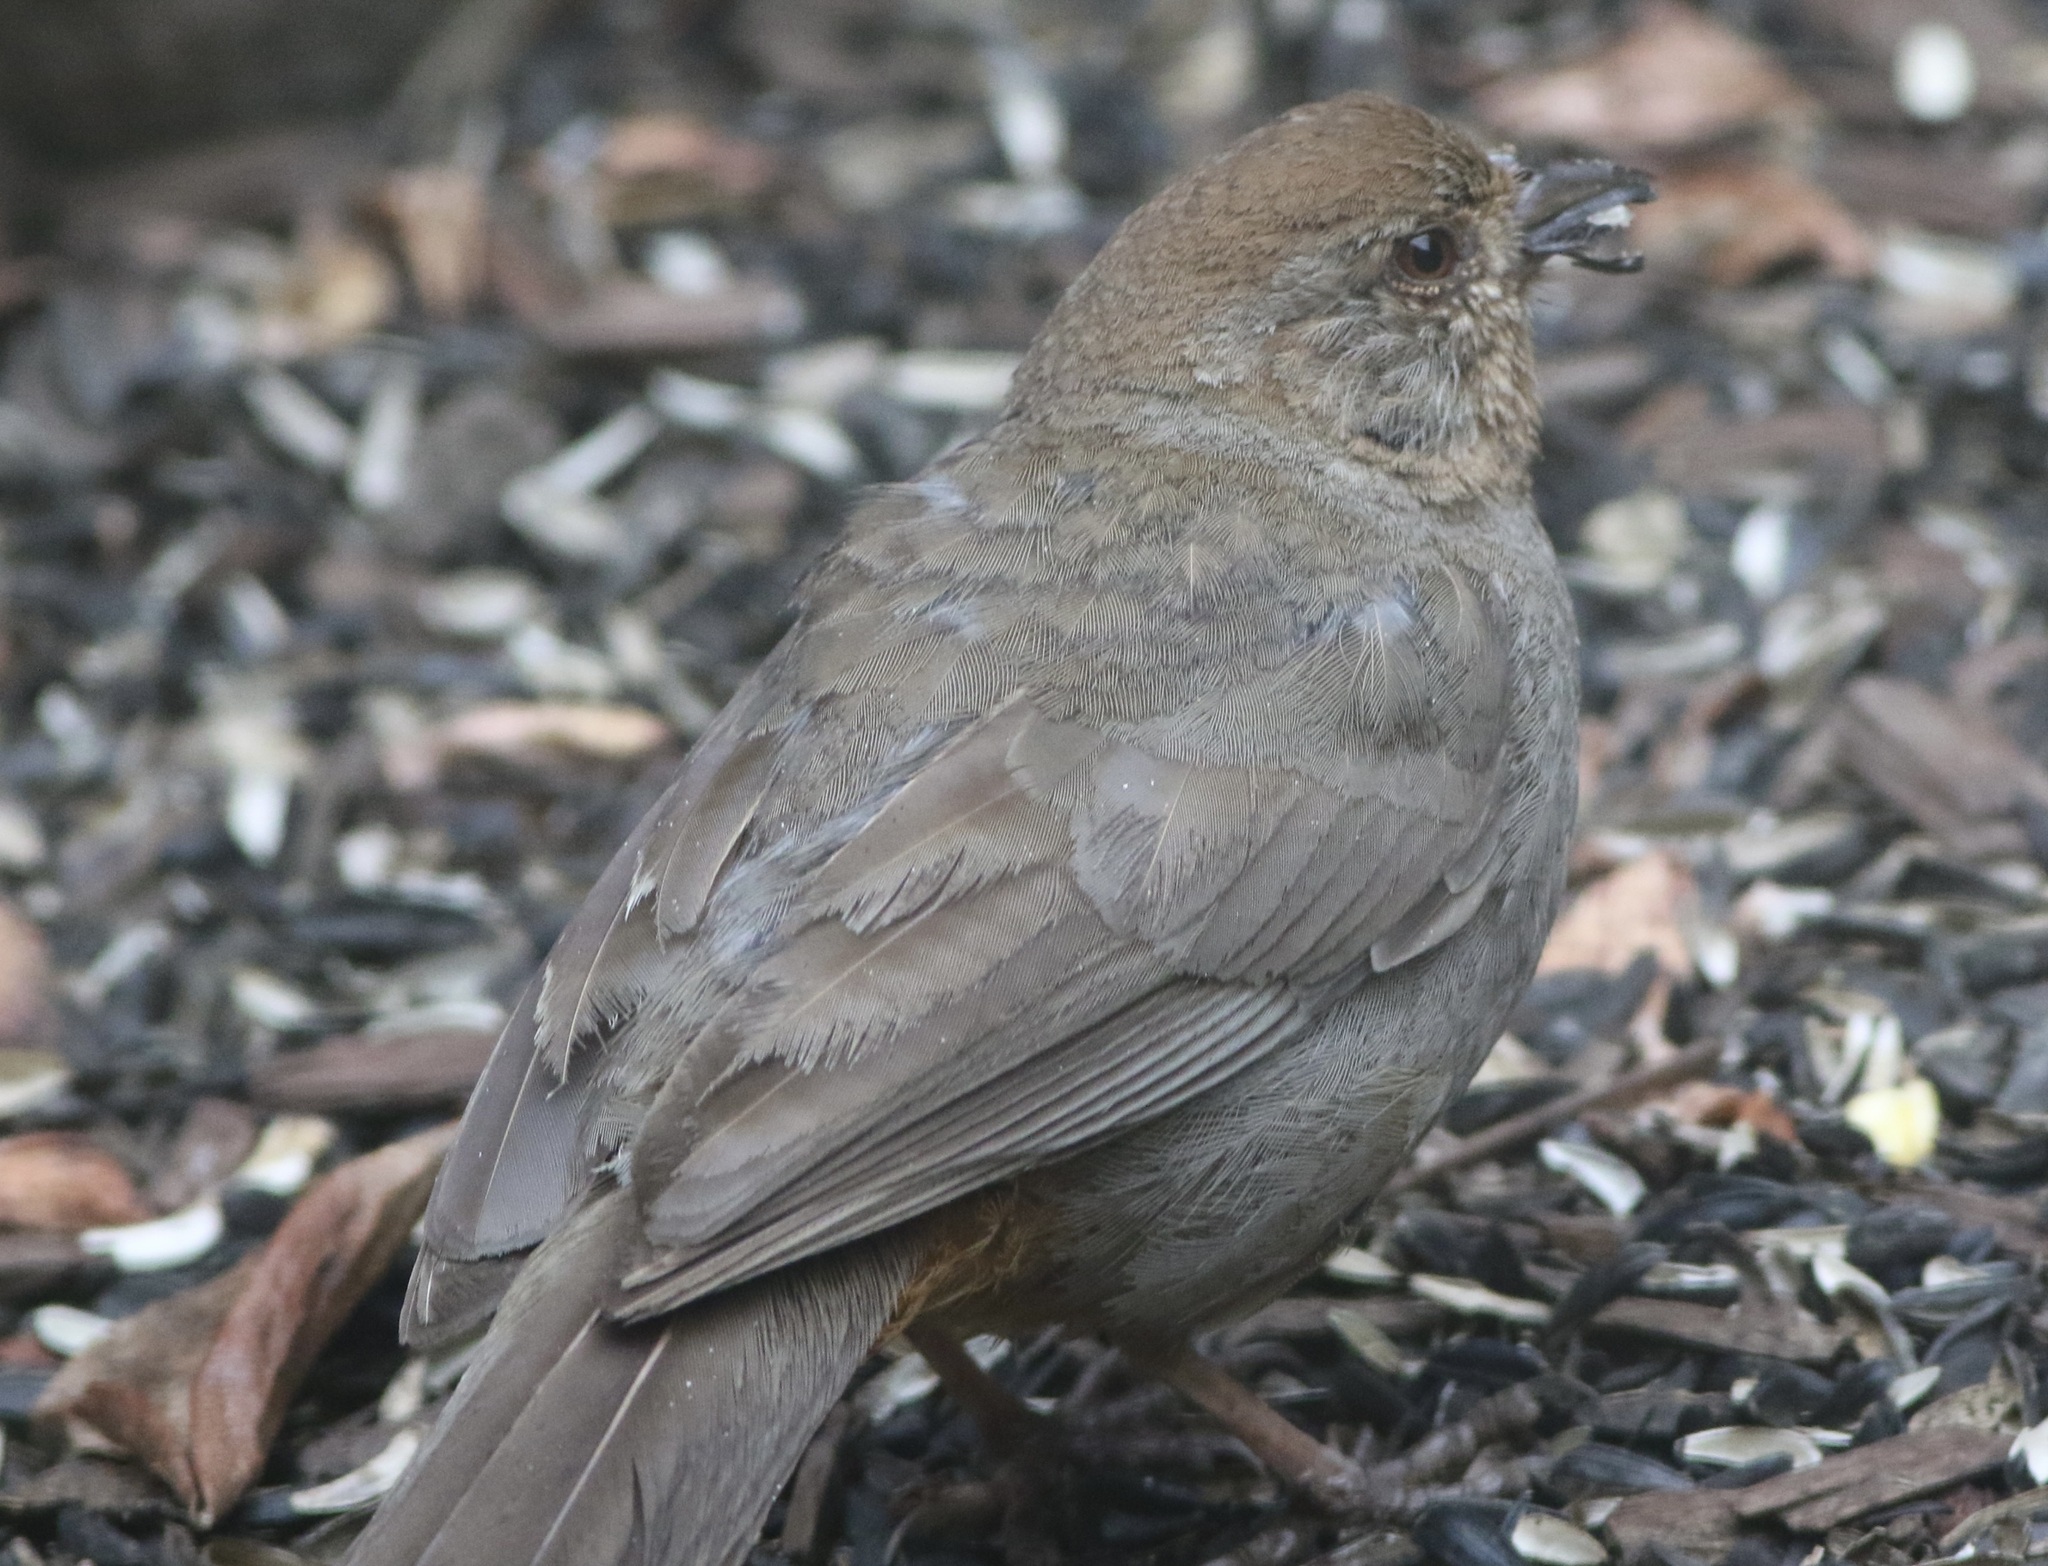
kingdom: Animalia
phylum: Chordata
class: Aves
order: Passeriformes
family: Passerellidae
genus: Melozone
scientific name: Melozone crissalis
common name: California towhee
